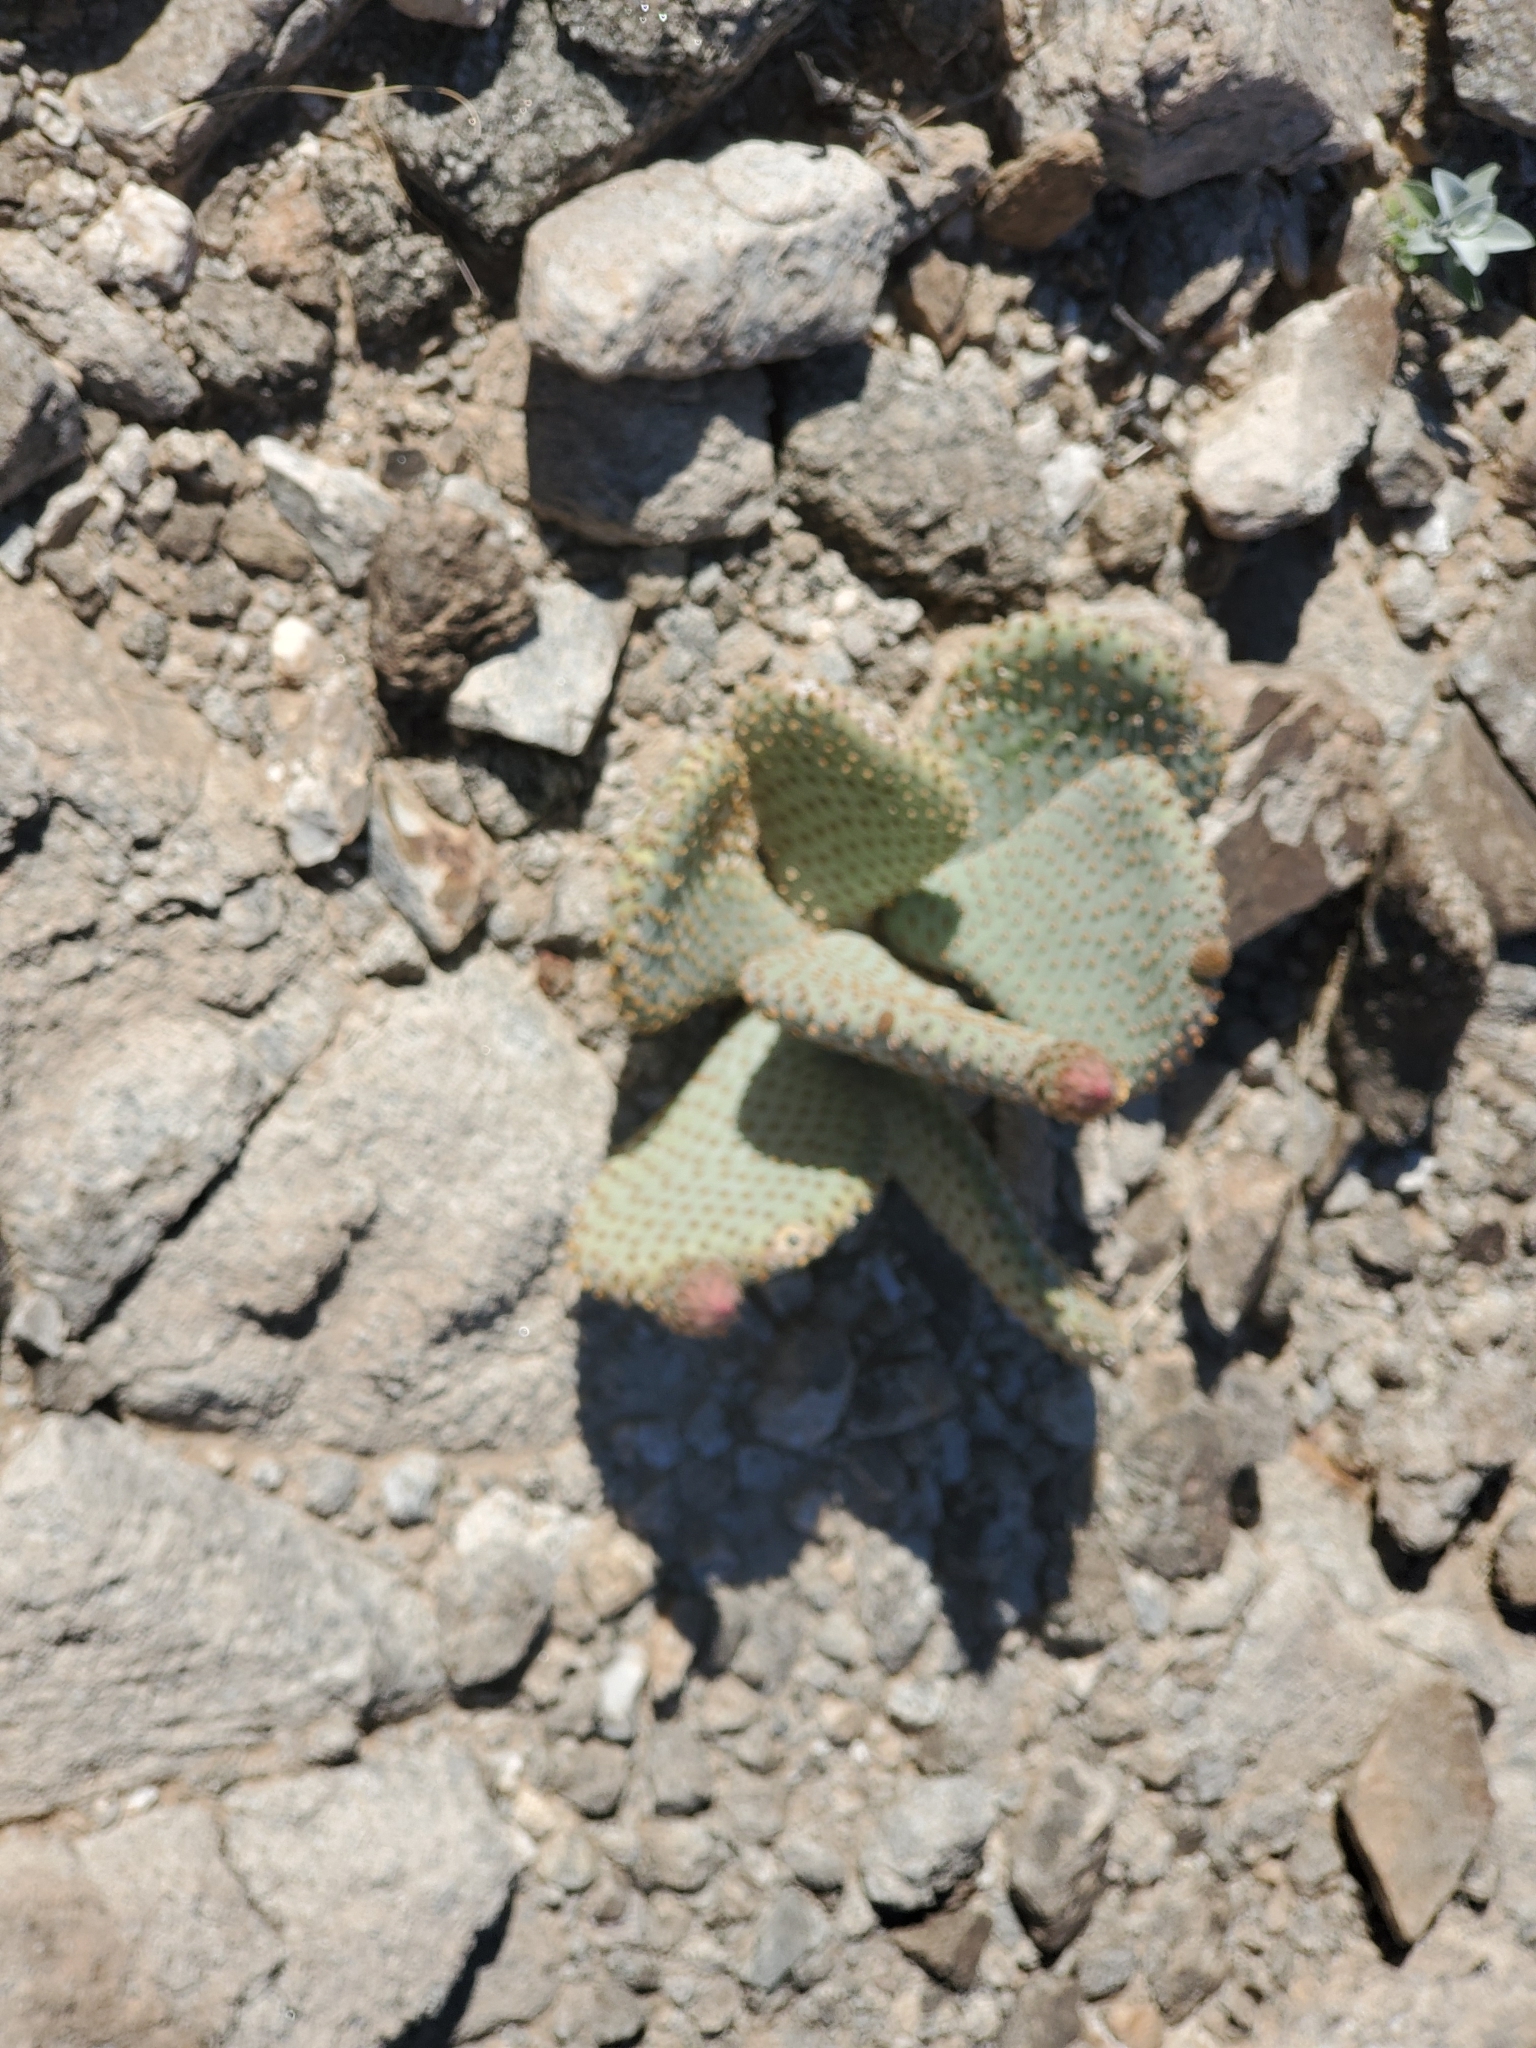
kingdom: Plantae
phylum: Tracheophyta
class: Magnoliopsida
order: Caryophyllales
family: Cactaceae
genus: Opuntia
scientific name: Opuntia basilaris
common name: Beavertail prickly-pear
